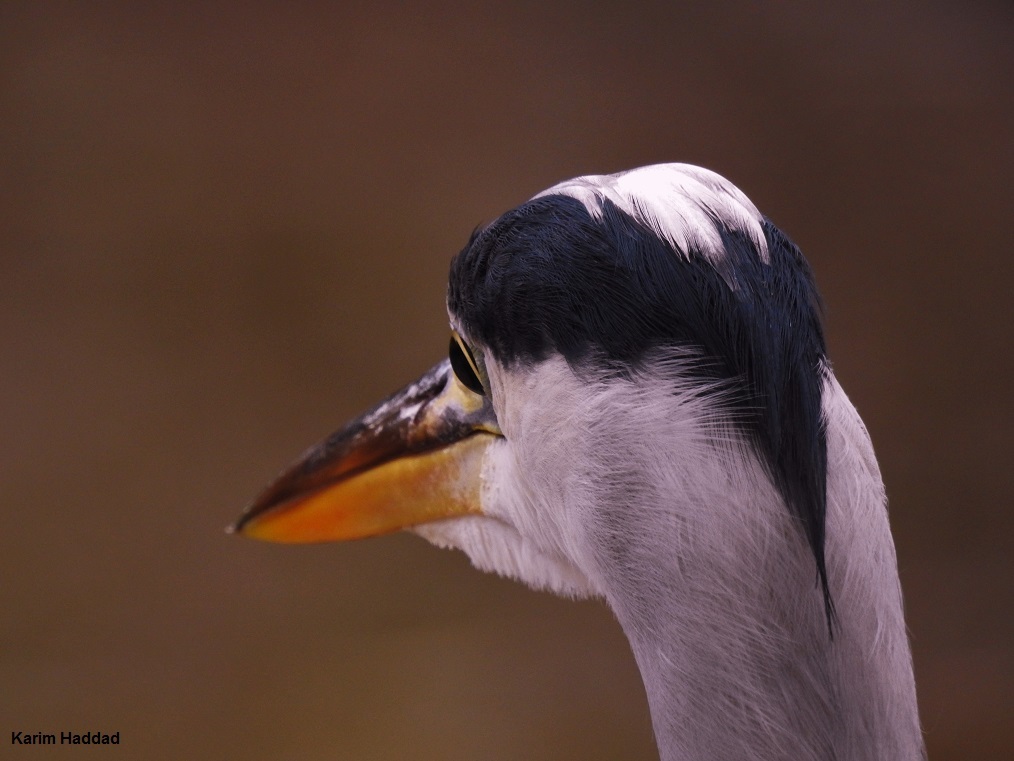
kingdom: Animalia
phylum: Chordata
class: Aves
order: Pelecaniformes
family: Ardeidae
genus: Ardea
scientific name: Ardea cinerea
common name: Grey heron
